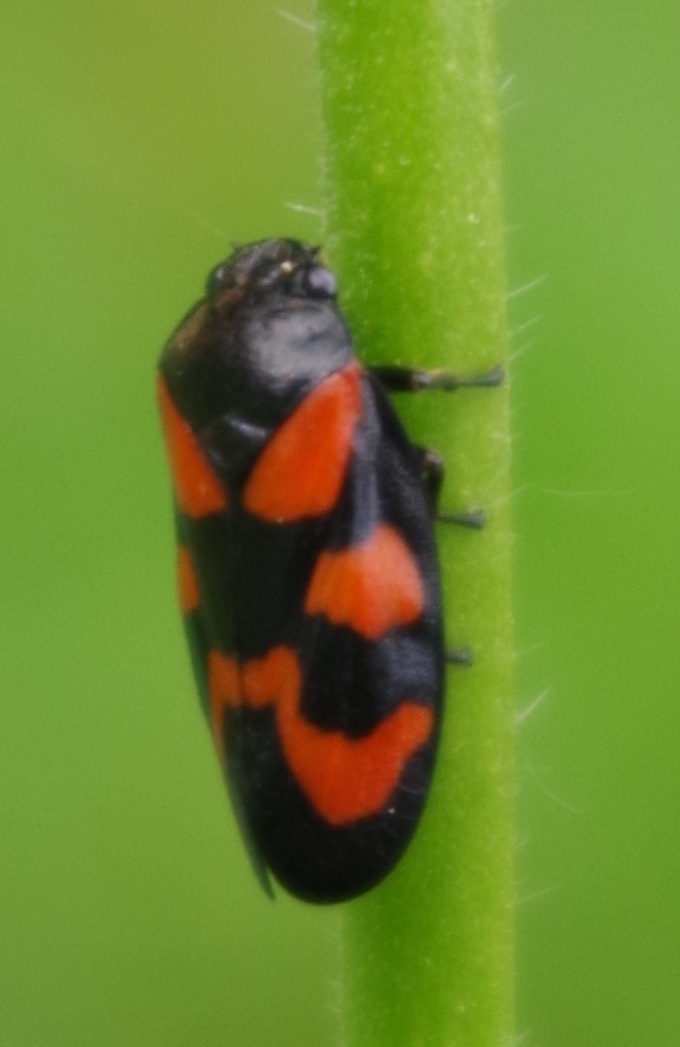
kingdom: Animalia
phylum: Arthropoda
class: Insecta
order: Hemiptera
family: Cercopidae
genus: Cercopis
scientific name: Cercopis vulnerata
